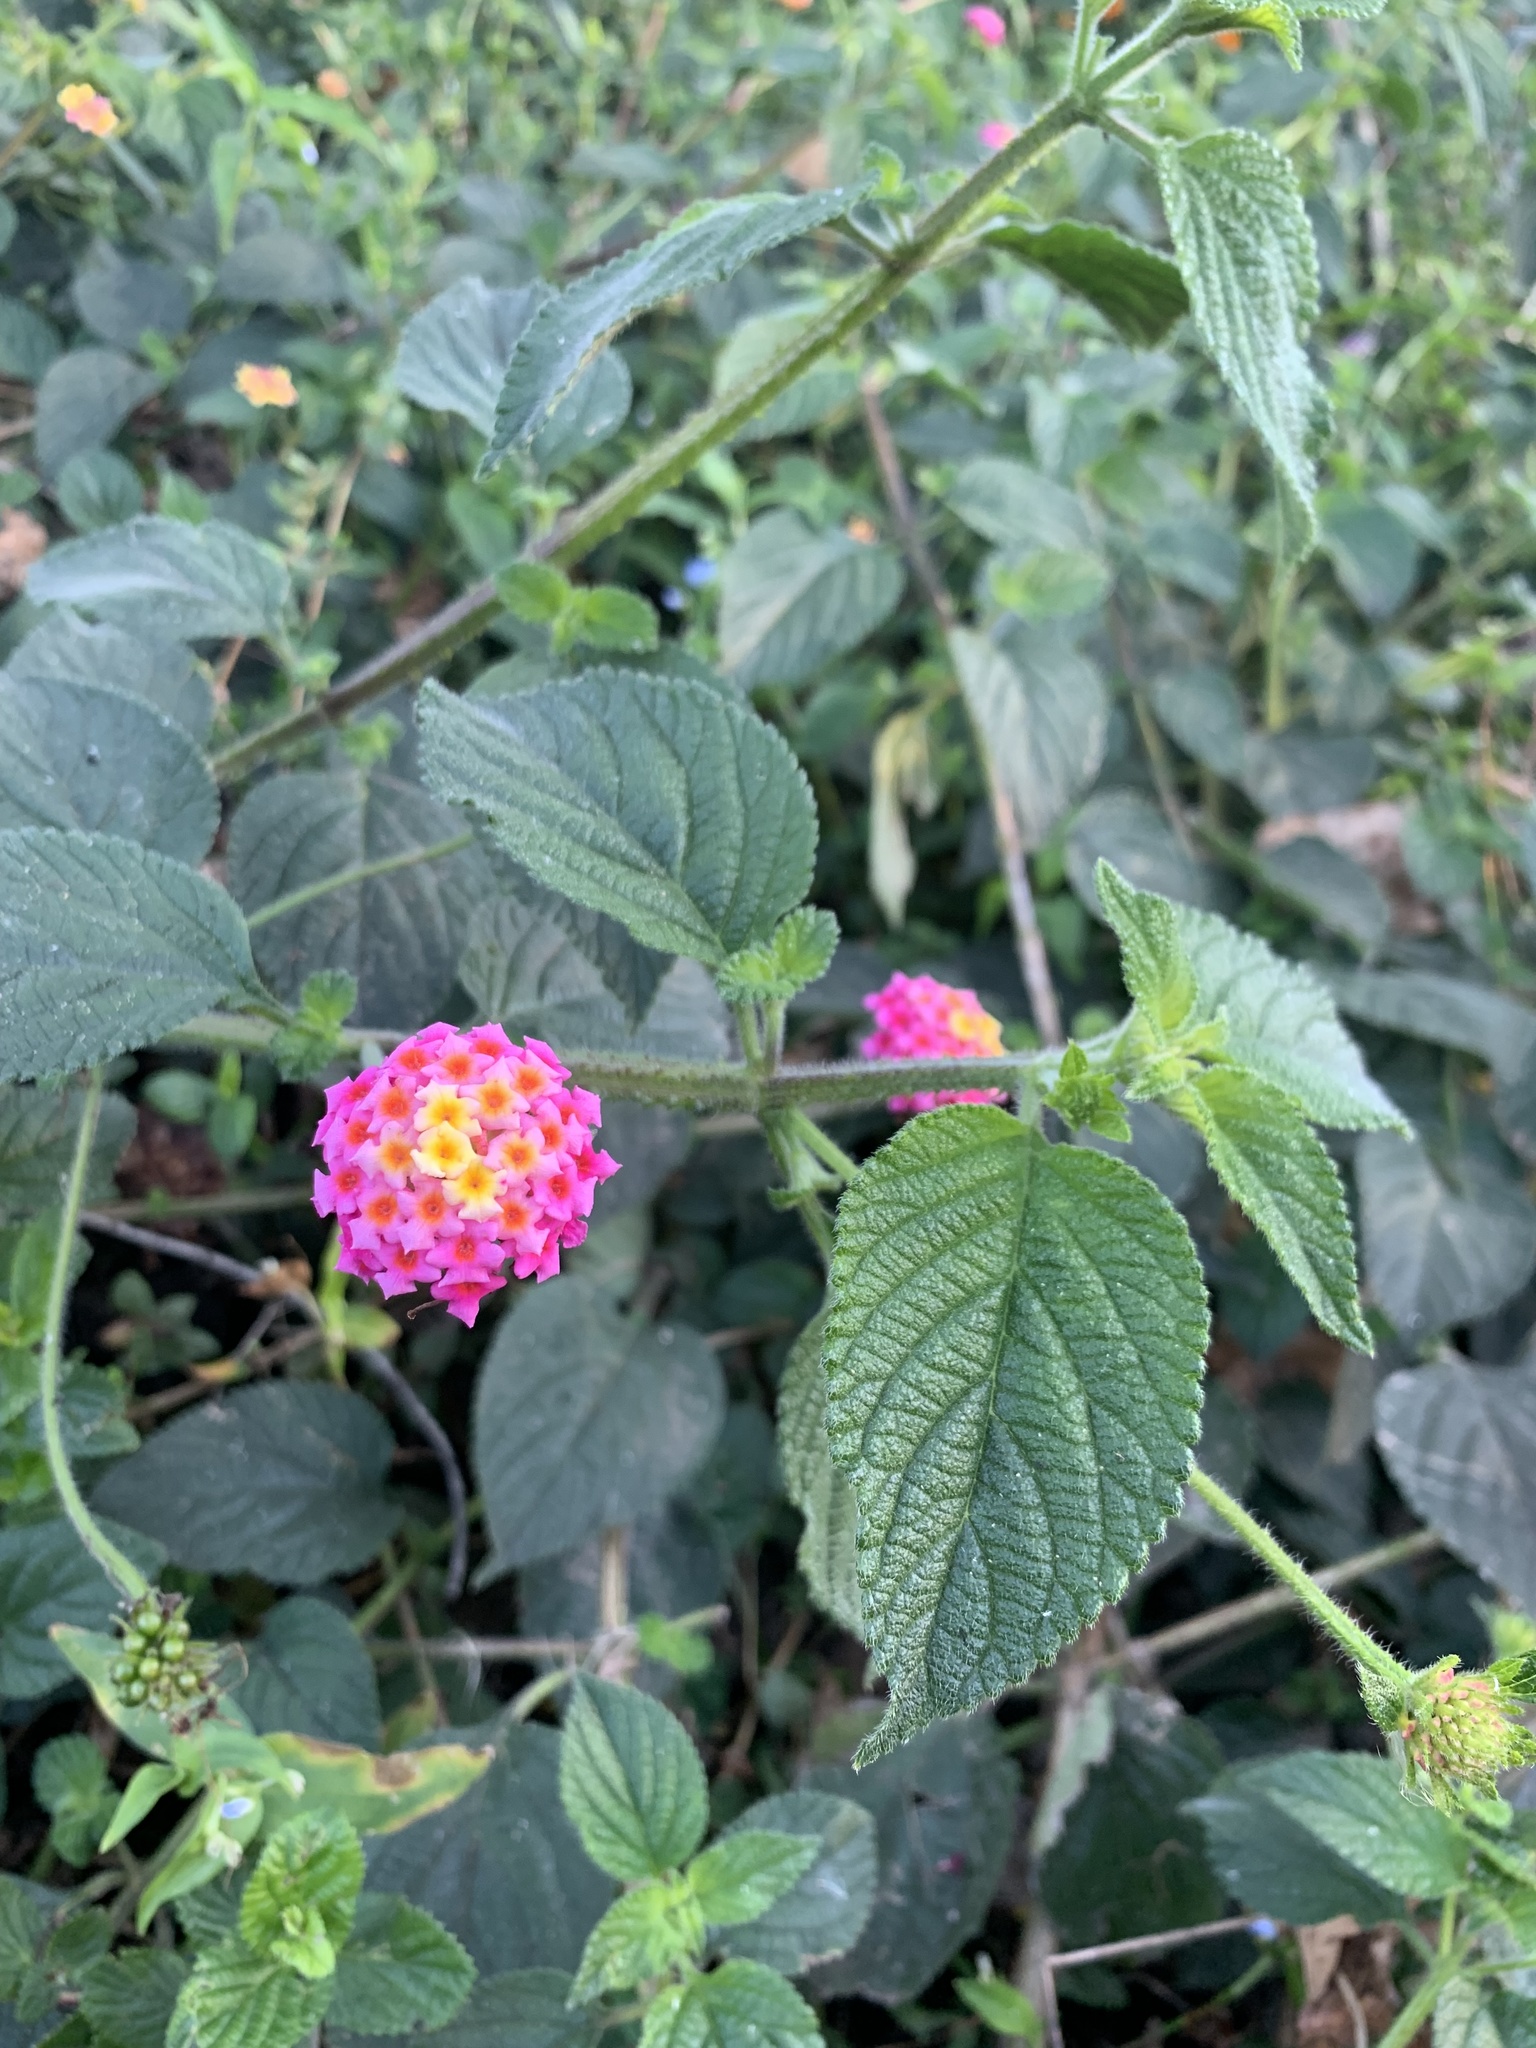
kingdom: Plantae
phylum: Tracheophyta
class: Magnoliopsida
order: Lamiales
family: Verbenaceae
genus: Lantana
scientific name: Lantana camara
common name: Lantana
